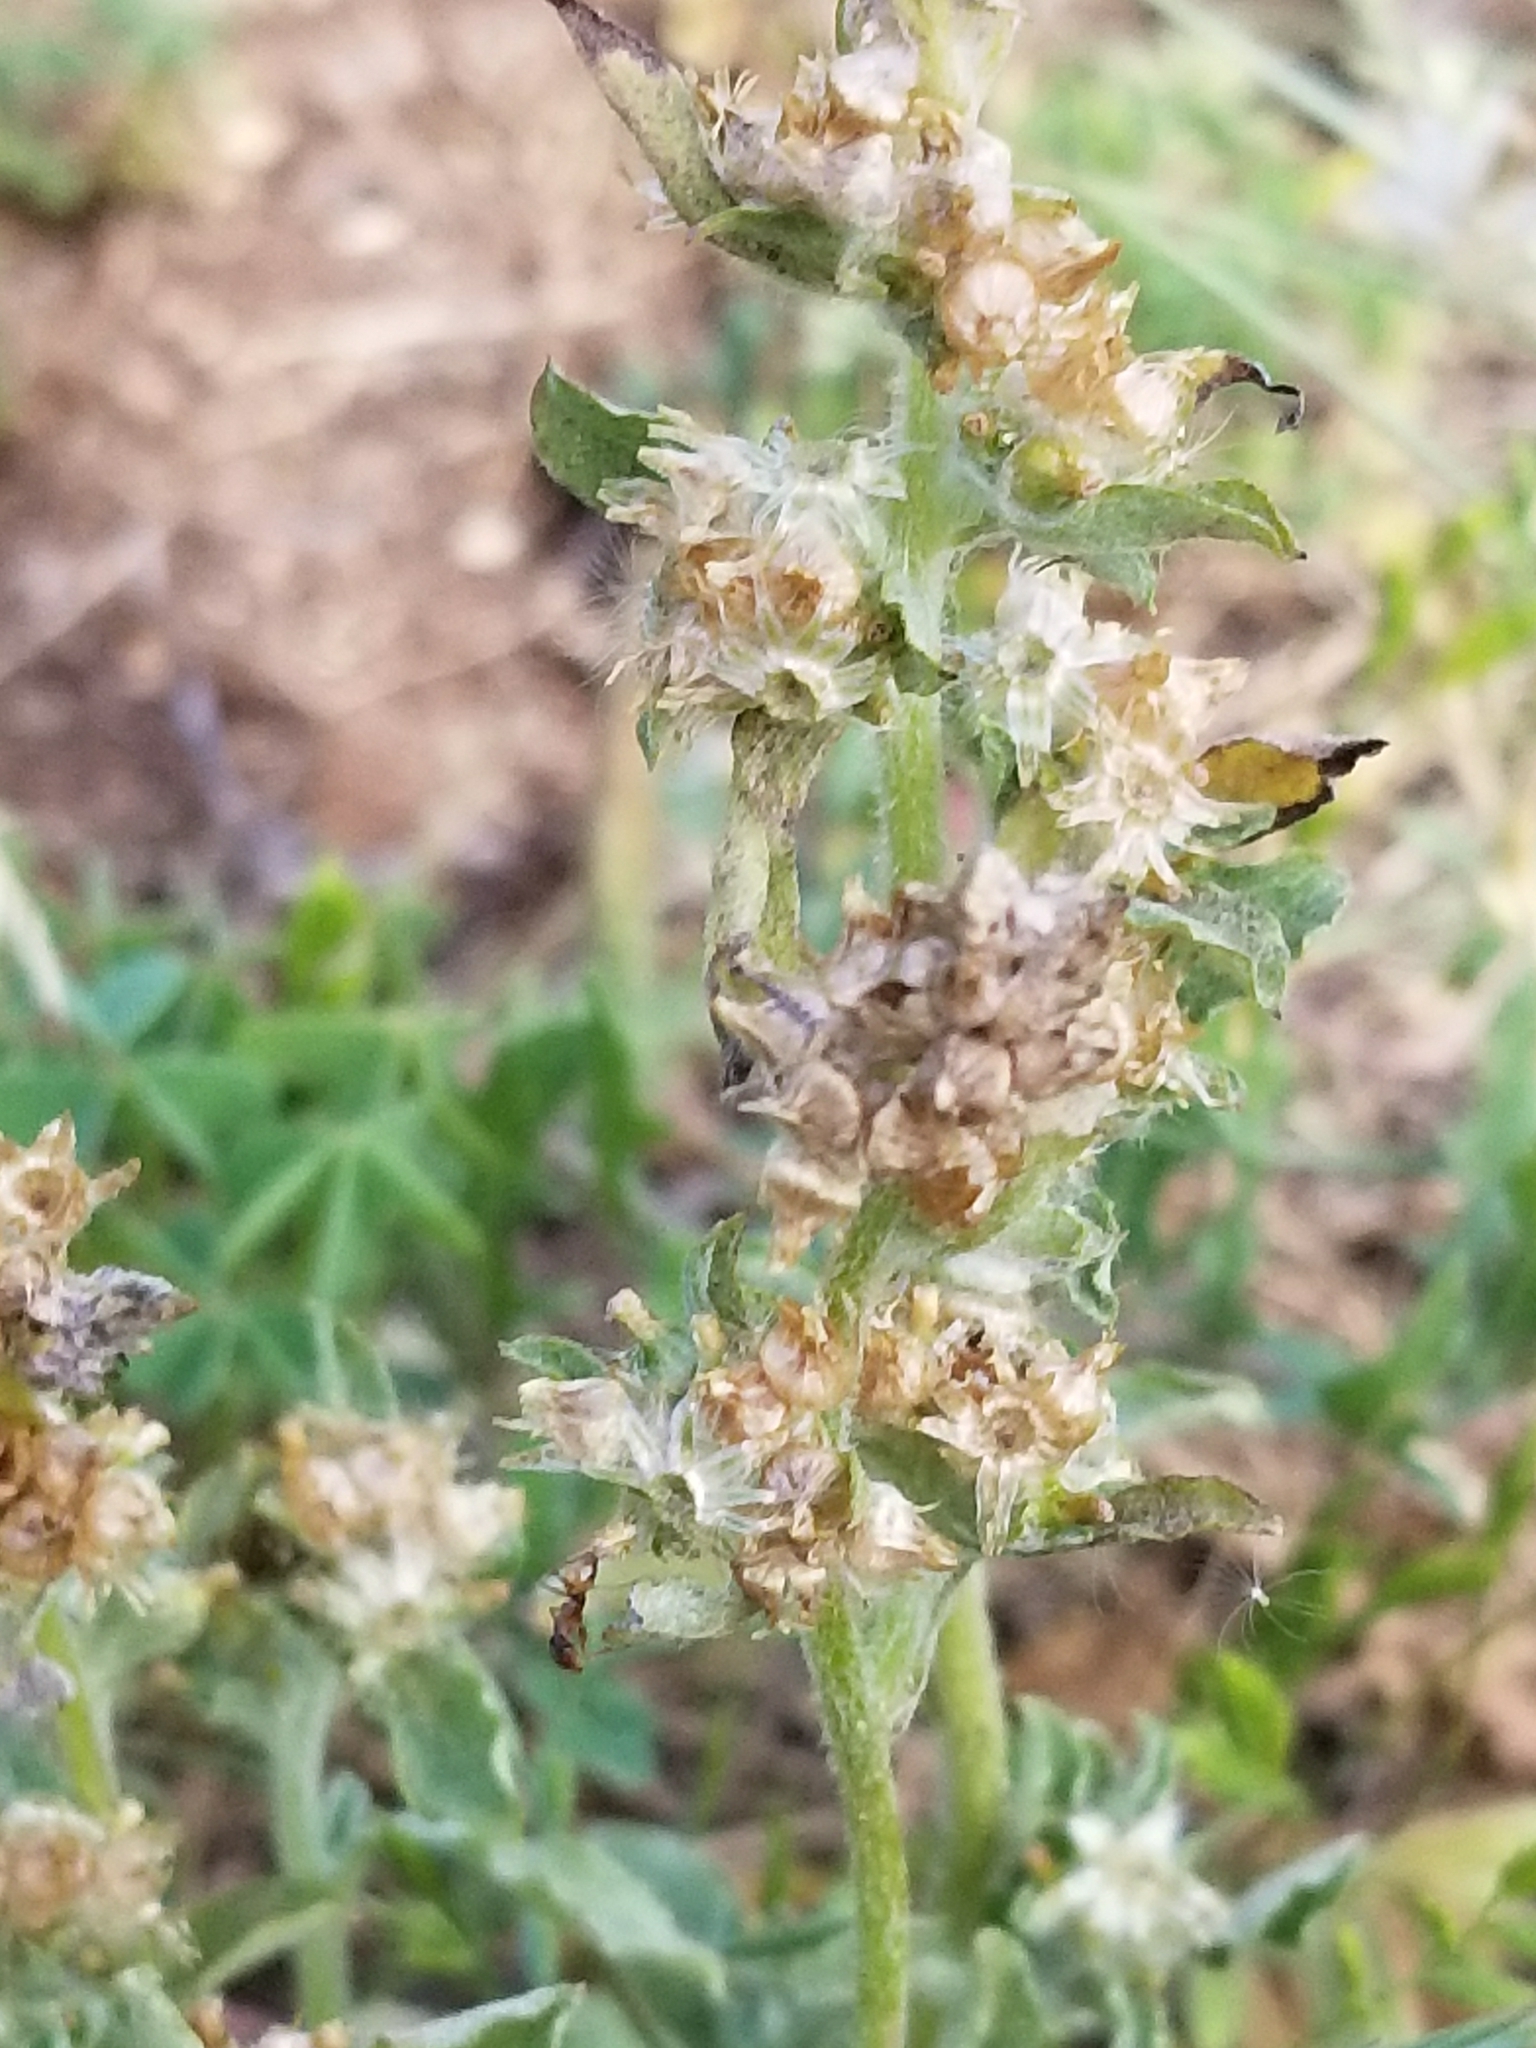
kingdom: Plantae
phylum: Tracheophyta
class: Magnoliopsida
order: Asterales
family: Asteraceae
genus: Gamochaeta
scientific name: Gamochaeta pensylvanica
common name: Pennsylvania everlasting
